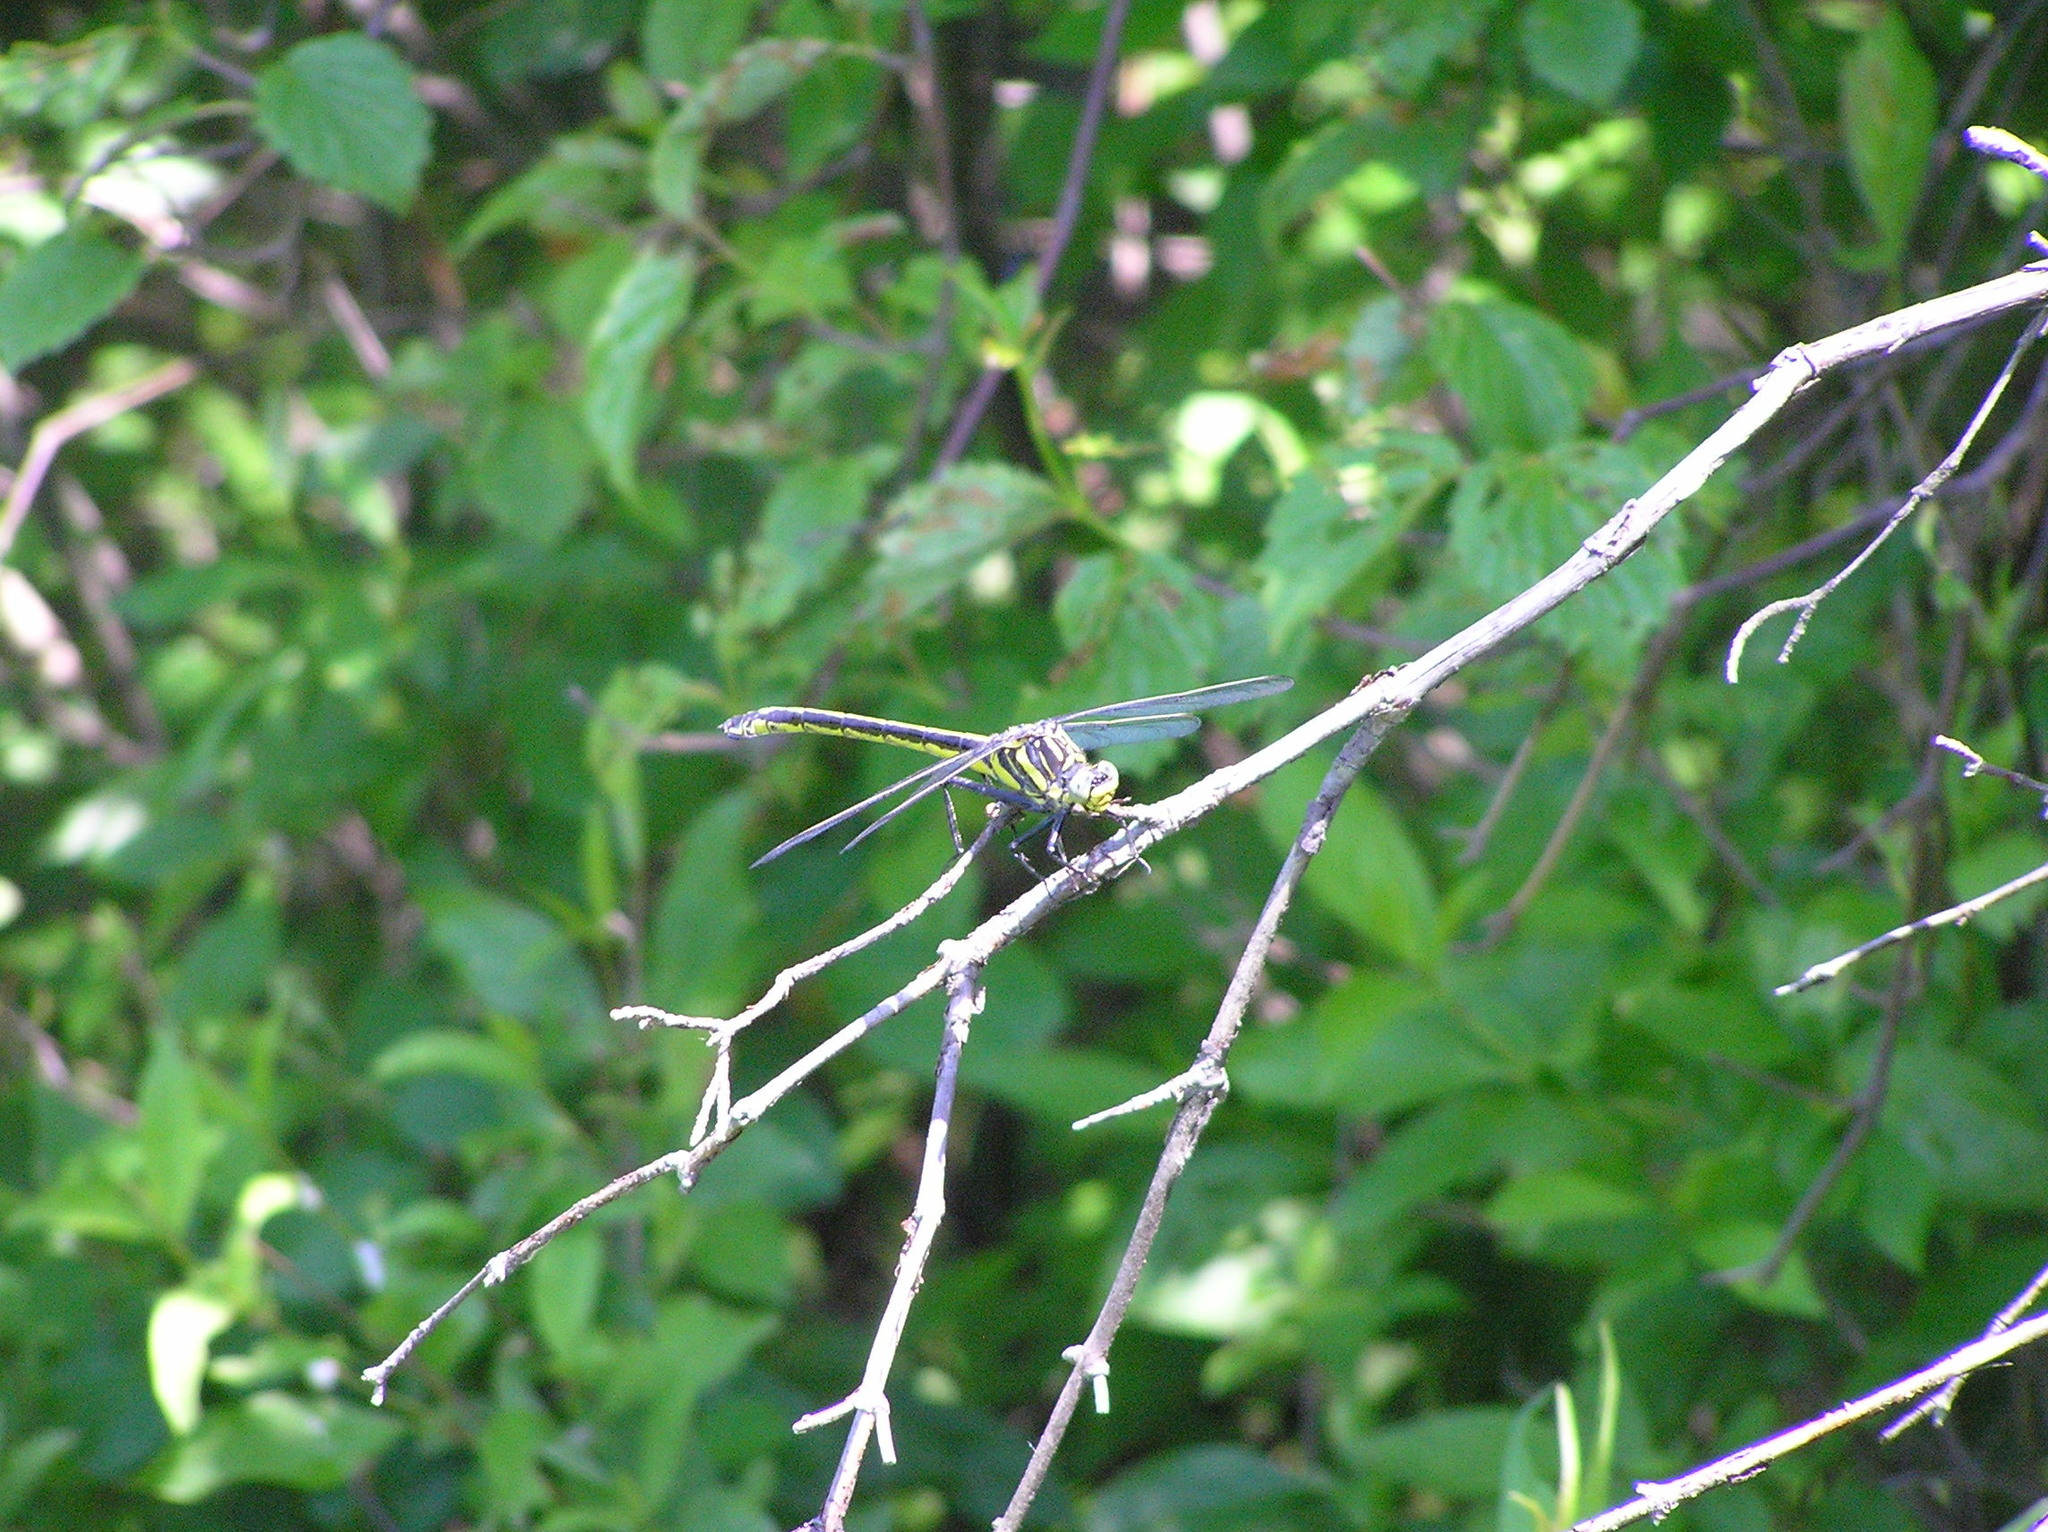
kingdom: Animalia
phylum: Arthropoda
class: Insecta
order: Odonata
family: Gomphidae
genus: Hagenius
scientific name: Hagenius brevistylus
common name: Dragonhunter
